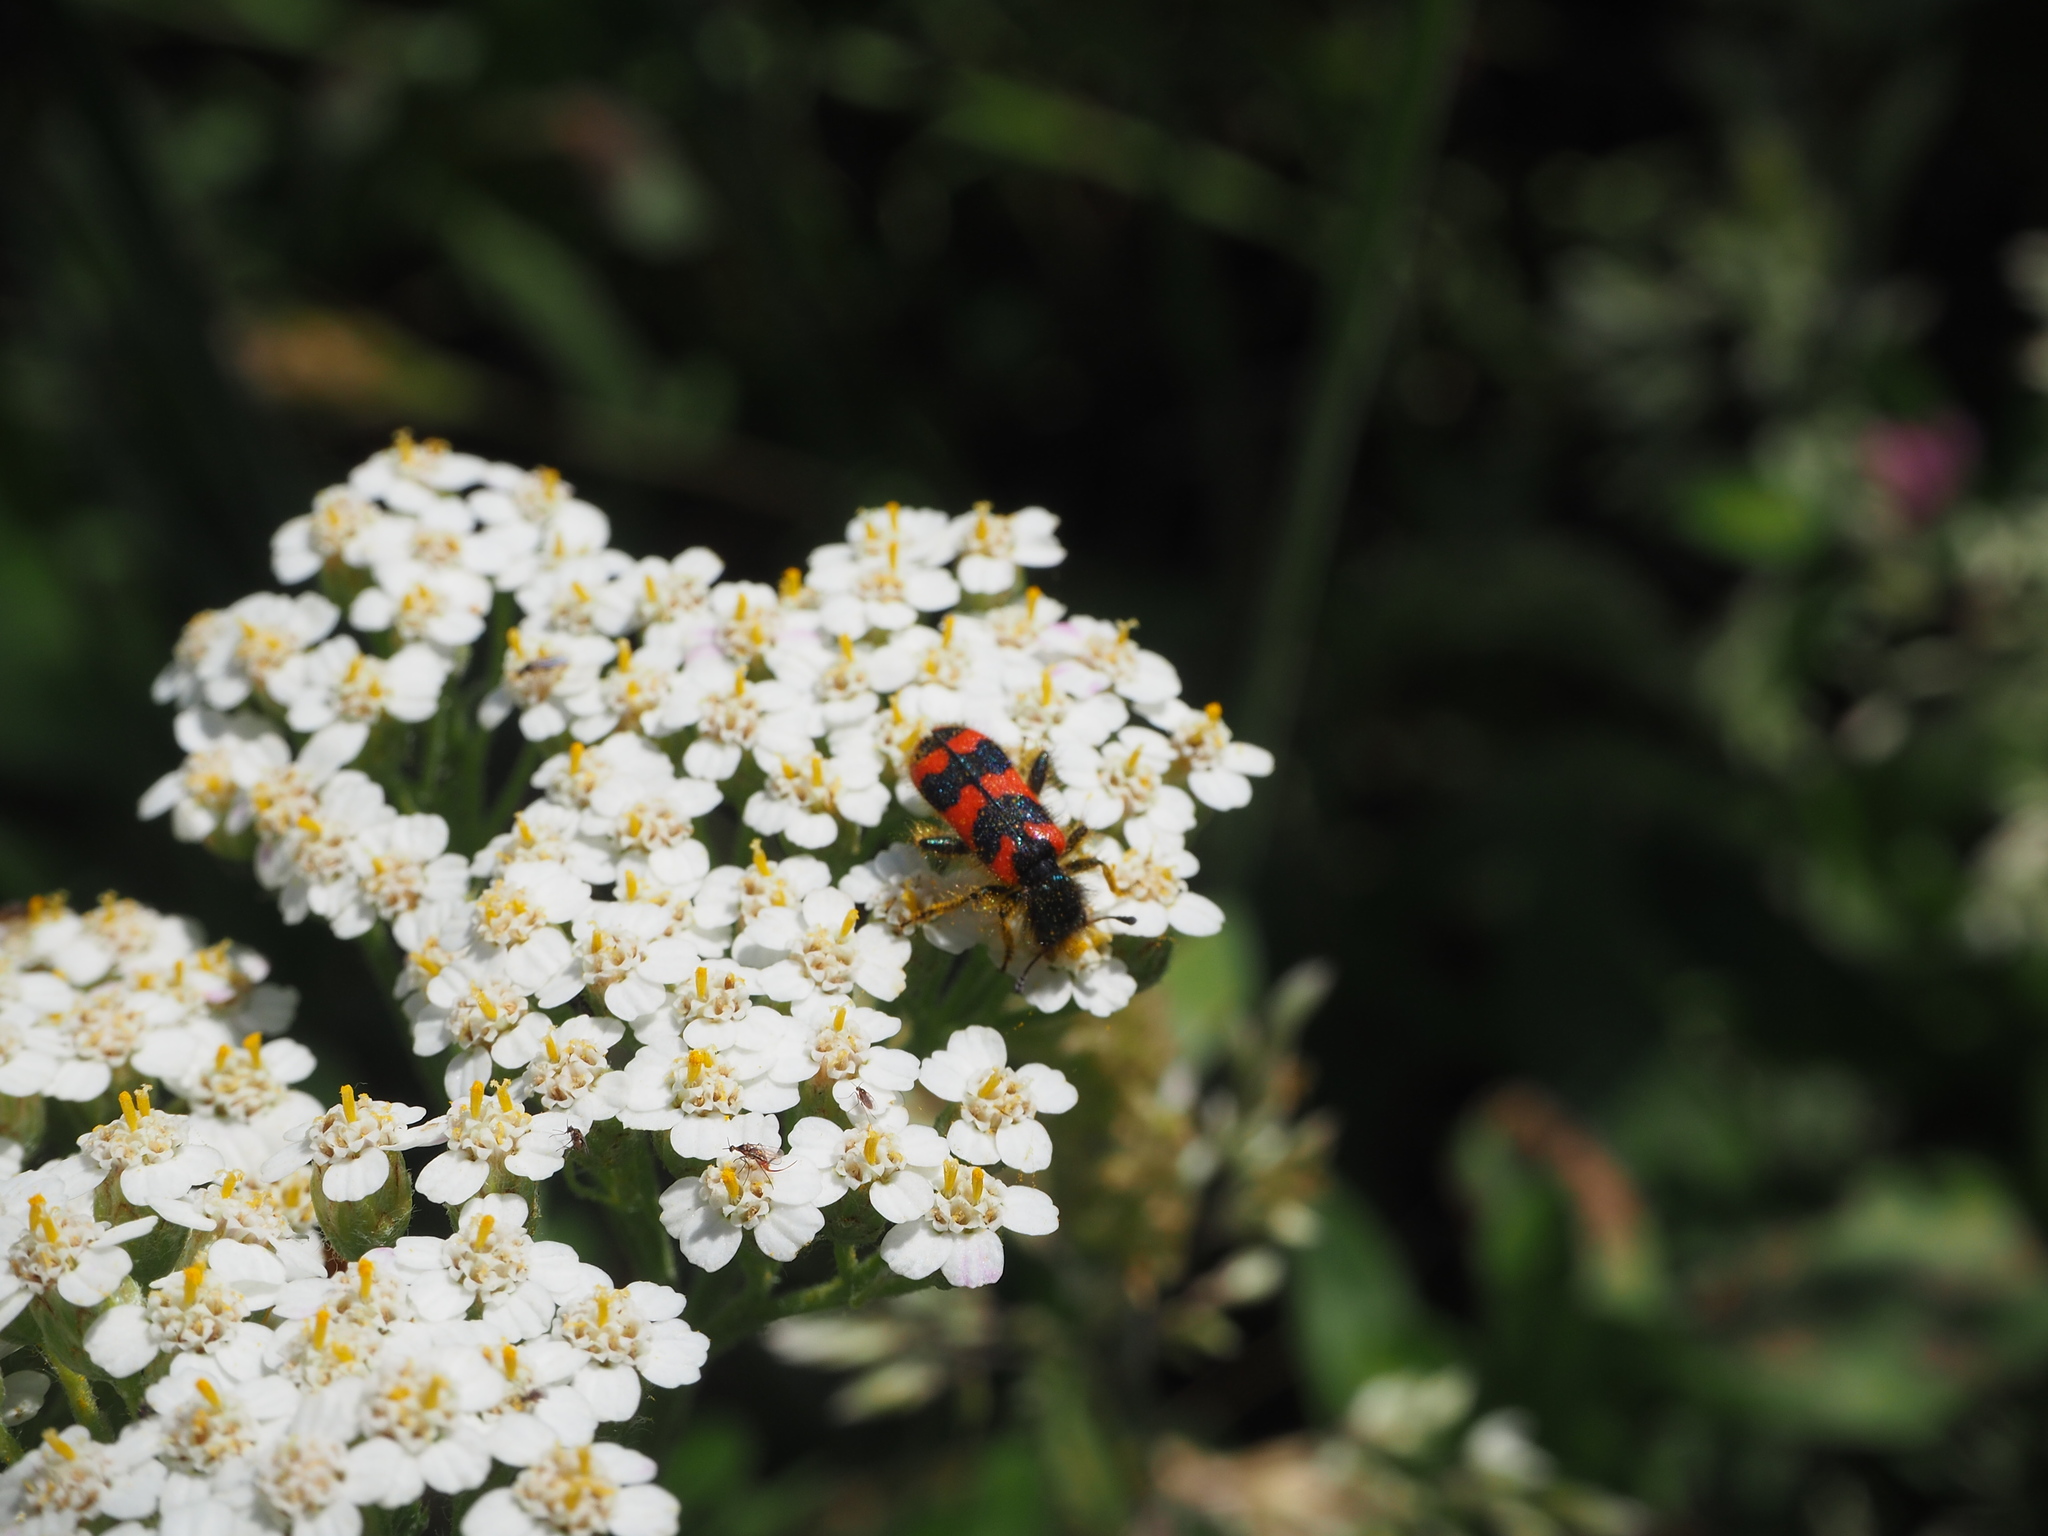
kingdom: Animalia
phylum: Arthropoda
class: Insecta
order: Coleoptera
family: Cleridae
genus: Trichodes
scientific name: Trichodes alvearius
